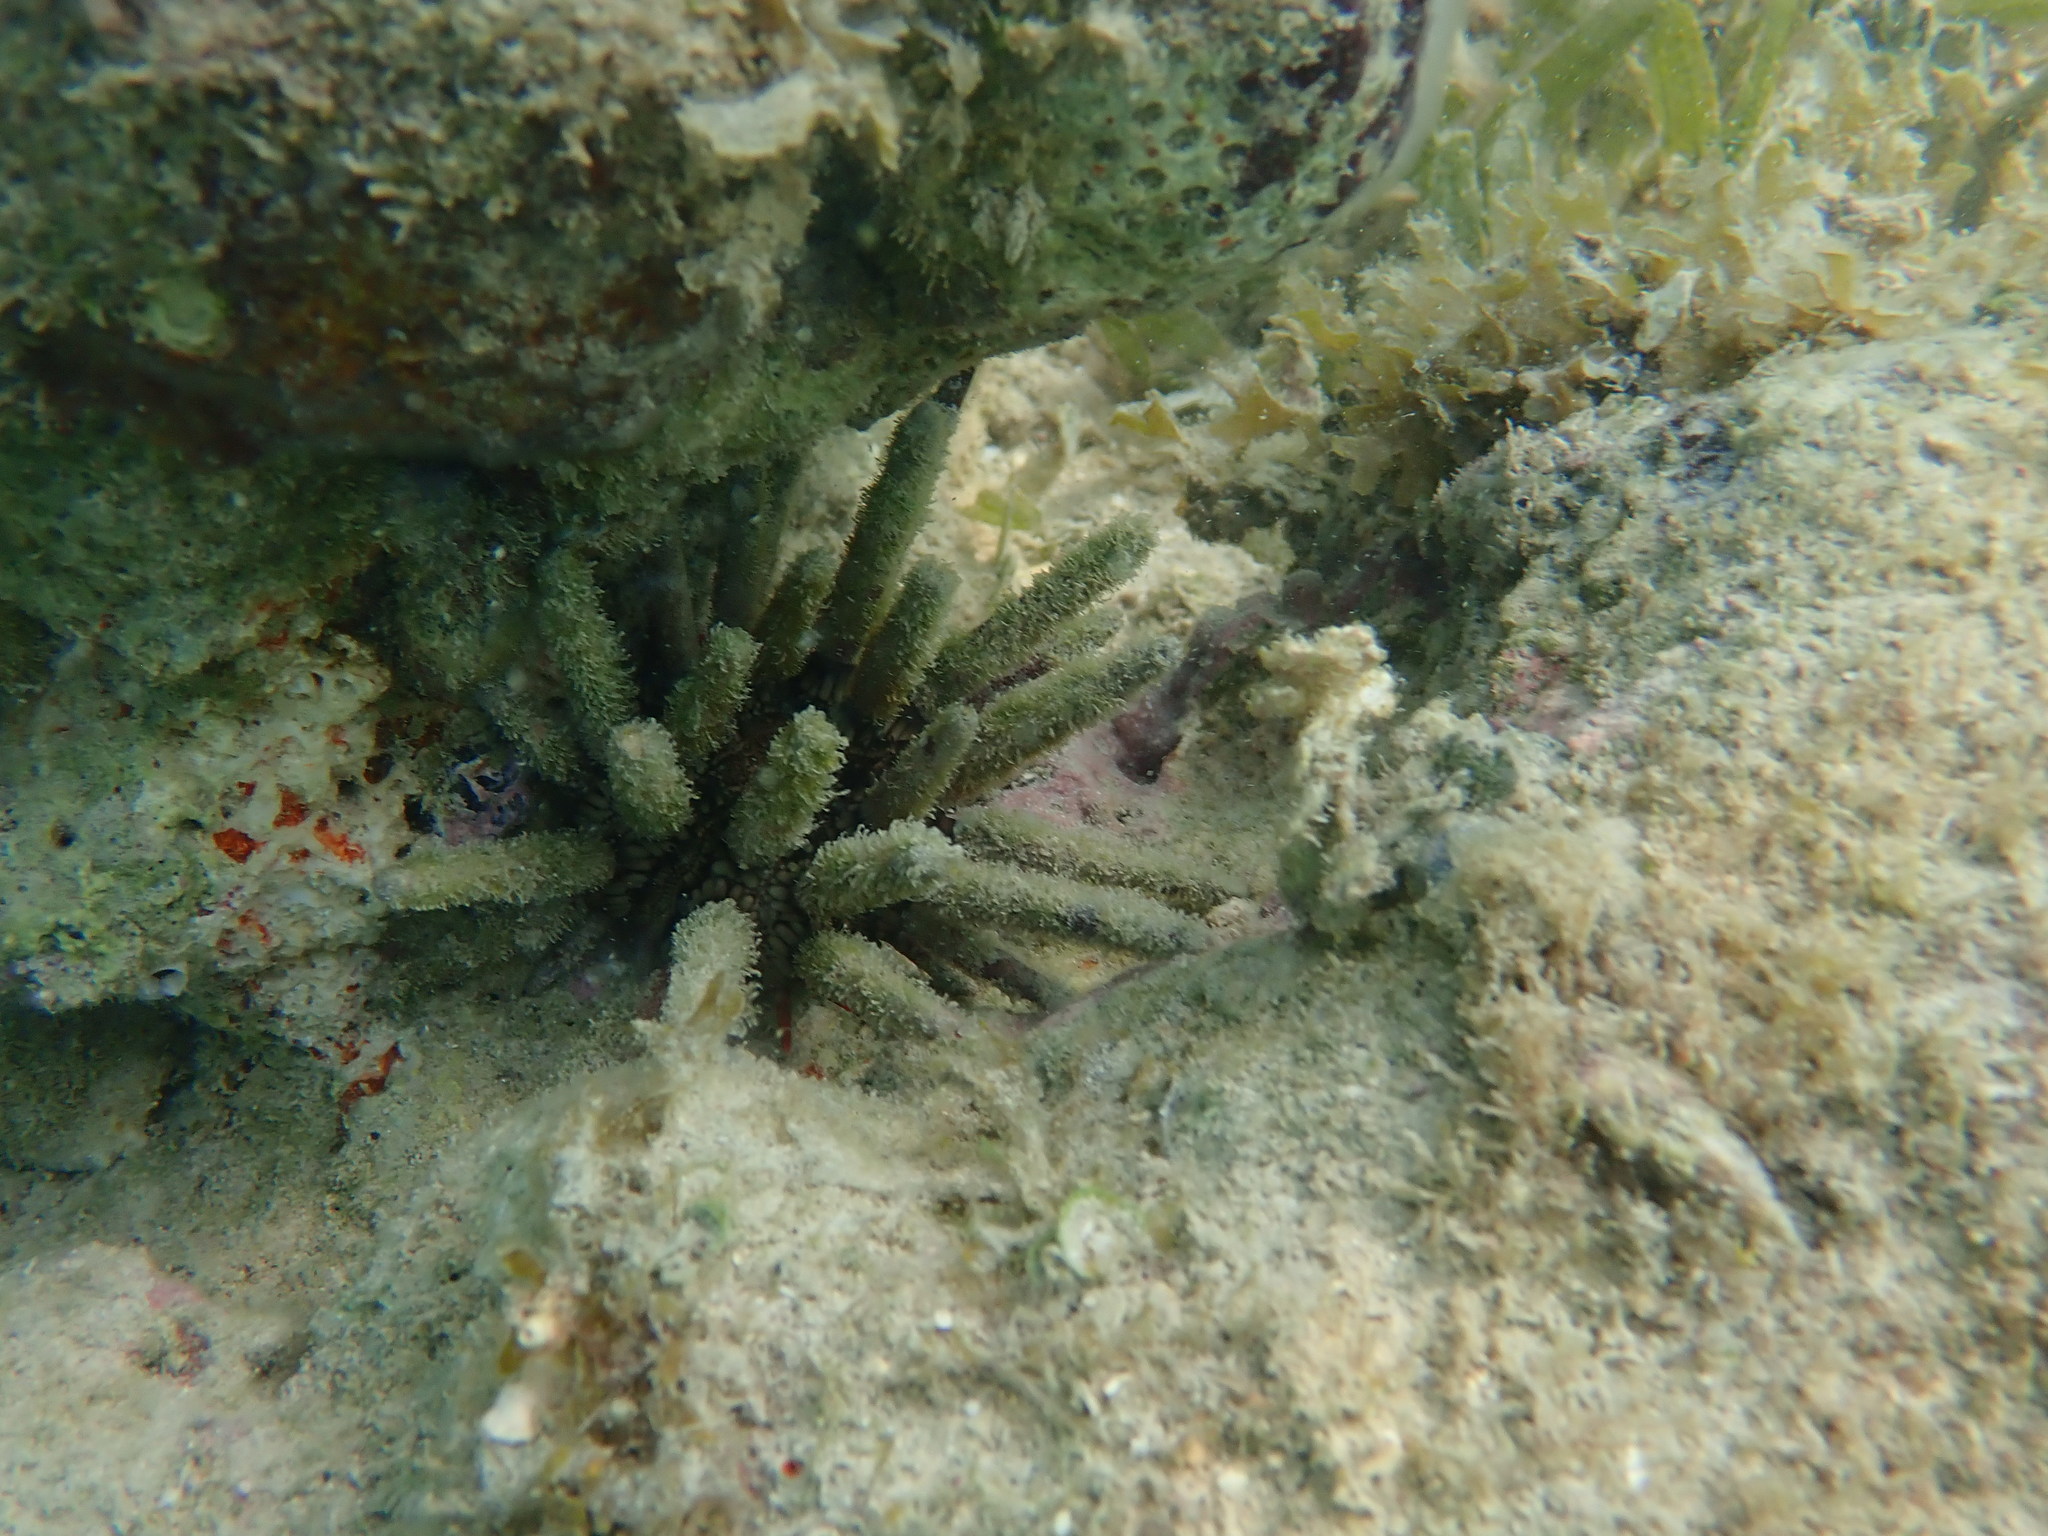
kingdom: Animalia
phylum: Echinodermata
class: Echinoidea
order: Cidaroida
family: Cidaridae
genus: Eucidaris
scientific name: Eucidaris tribuloides
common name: Slate pencil urchin
